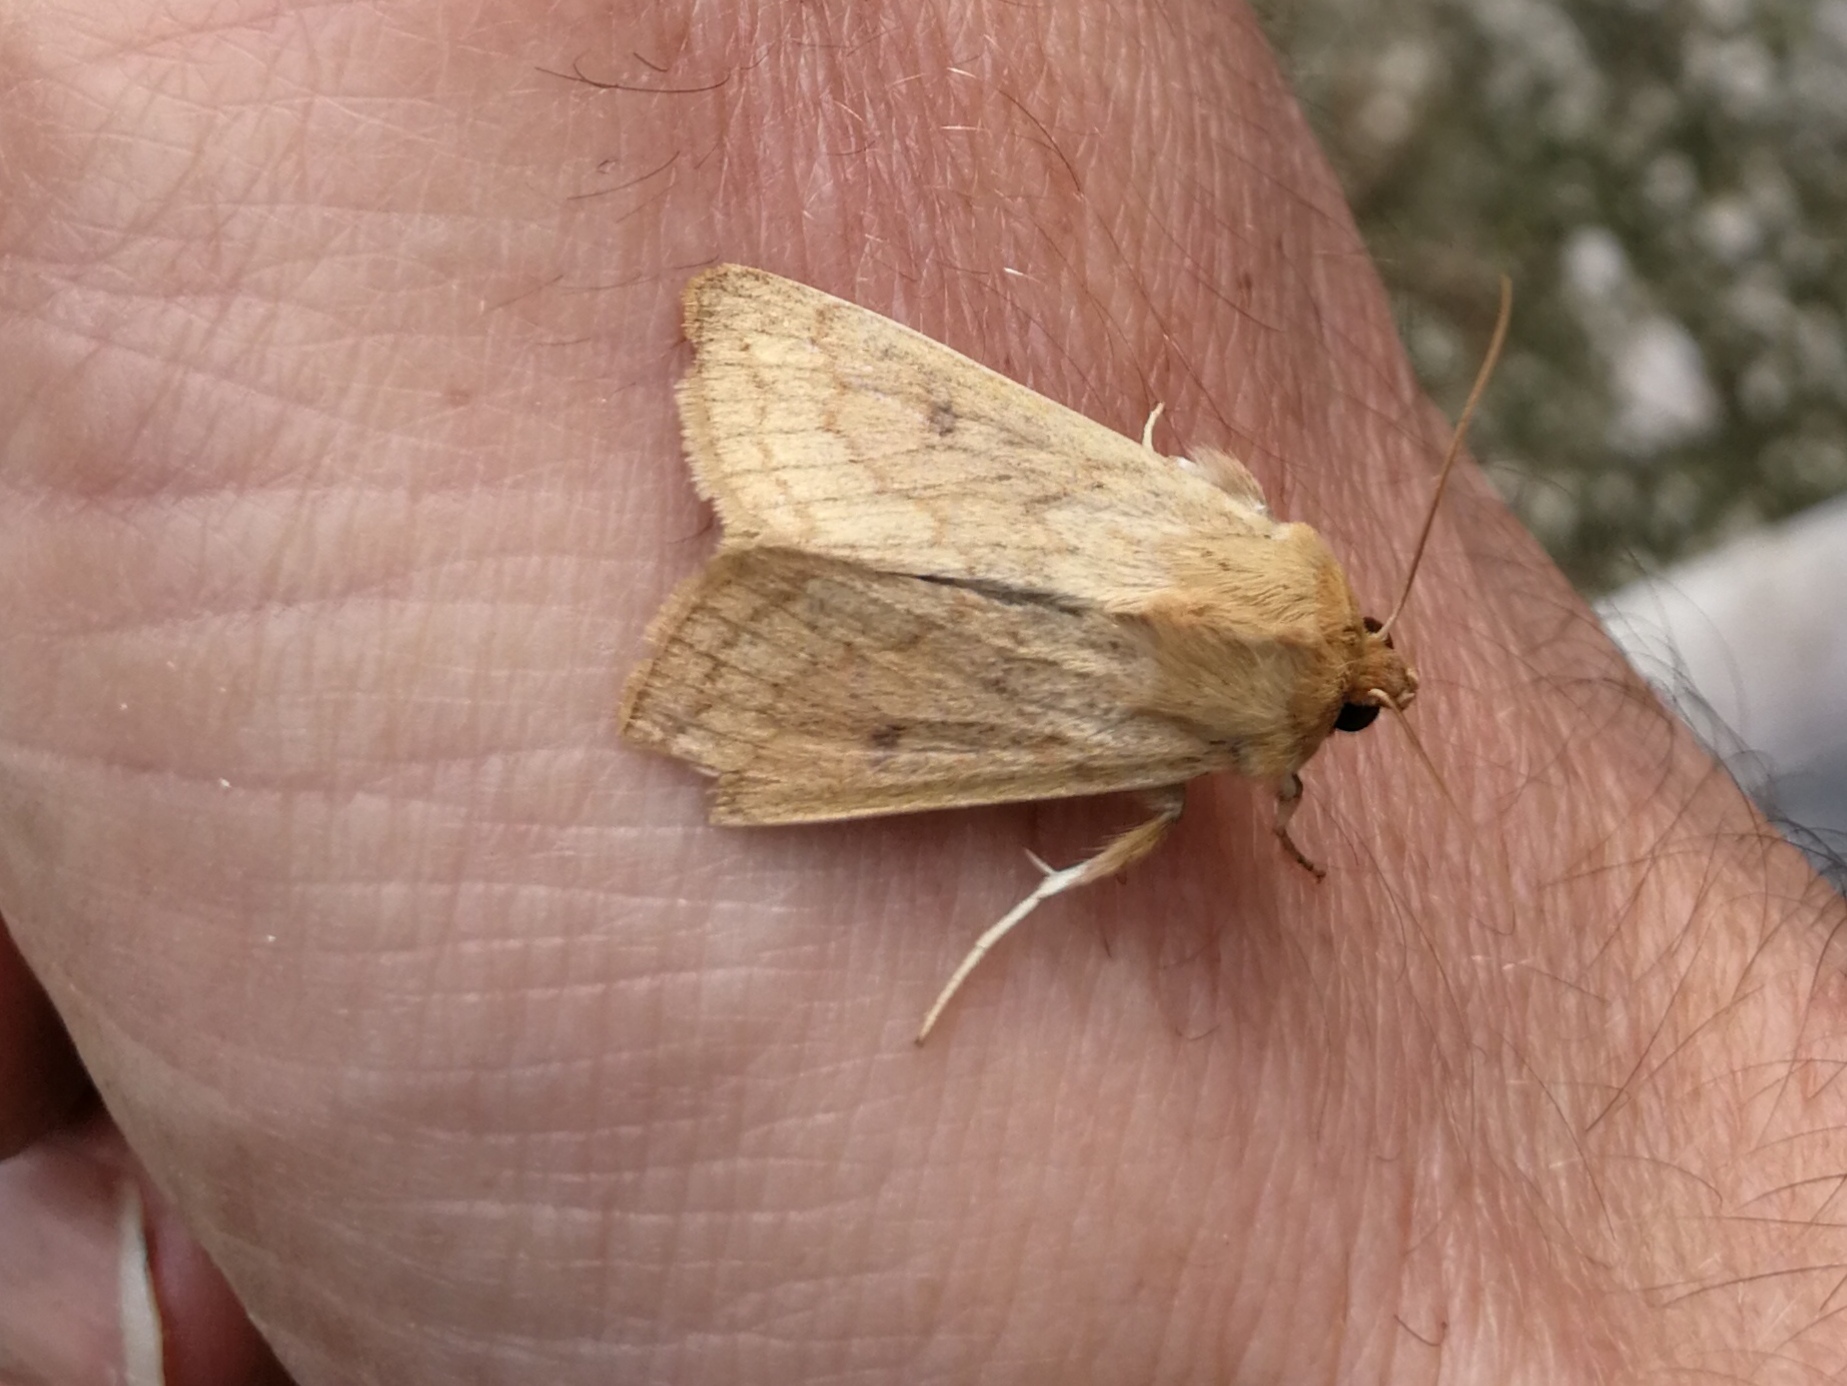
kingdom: Animalia
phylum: Arthropoda
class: Insecta
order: Lepidoptera
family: Noctuidae
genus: Mythimna
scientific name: Mythimna vitellina
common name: Delicate
